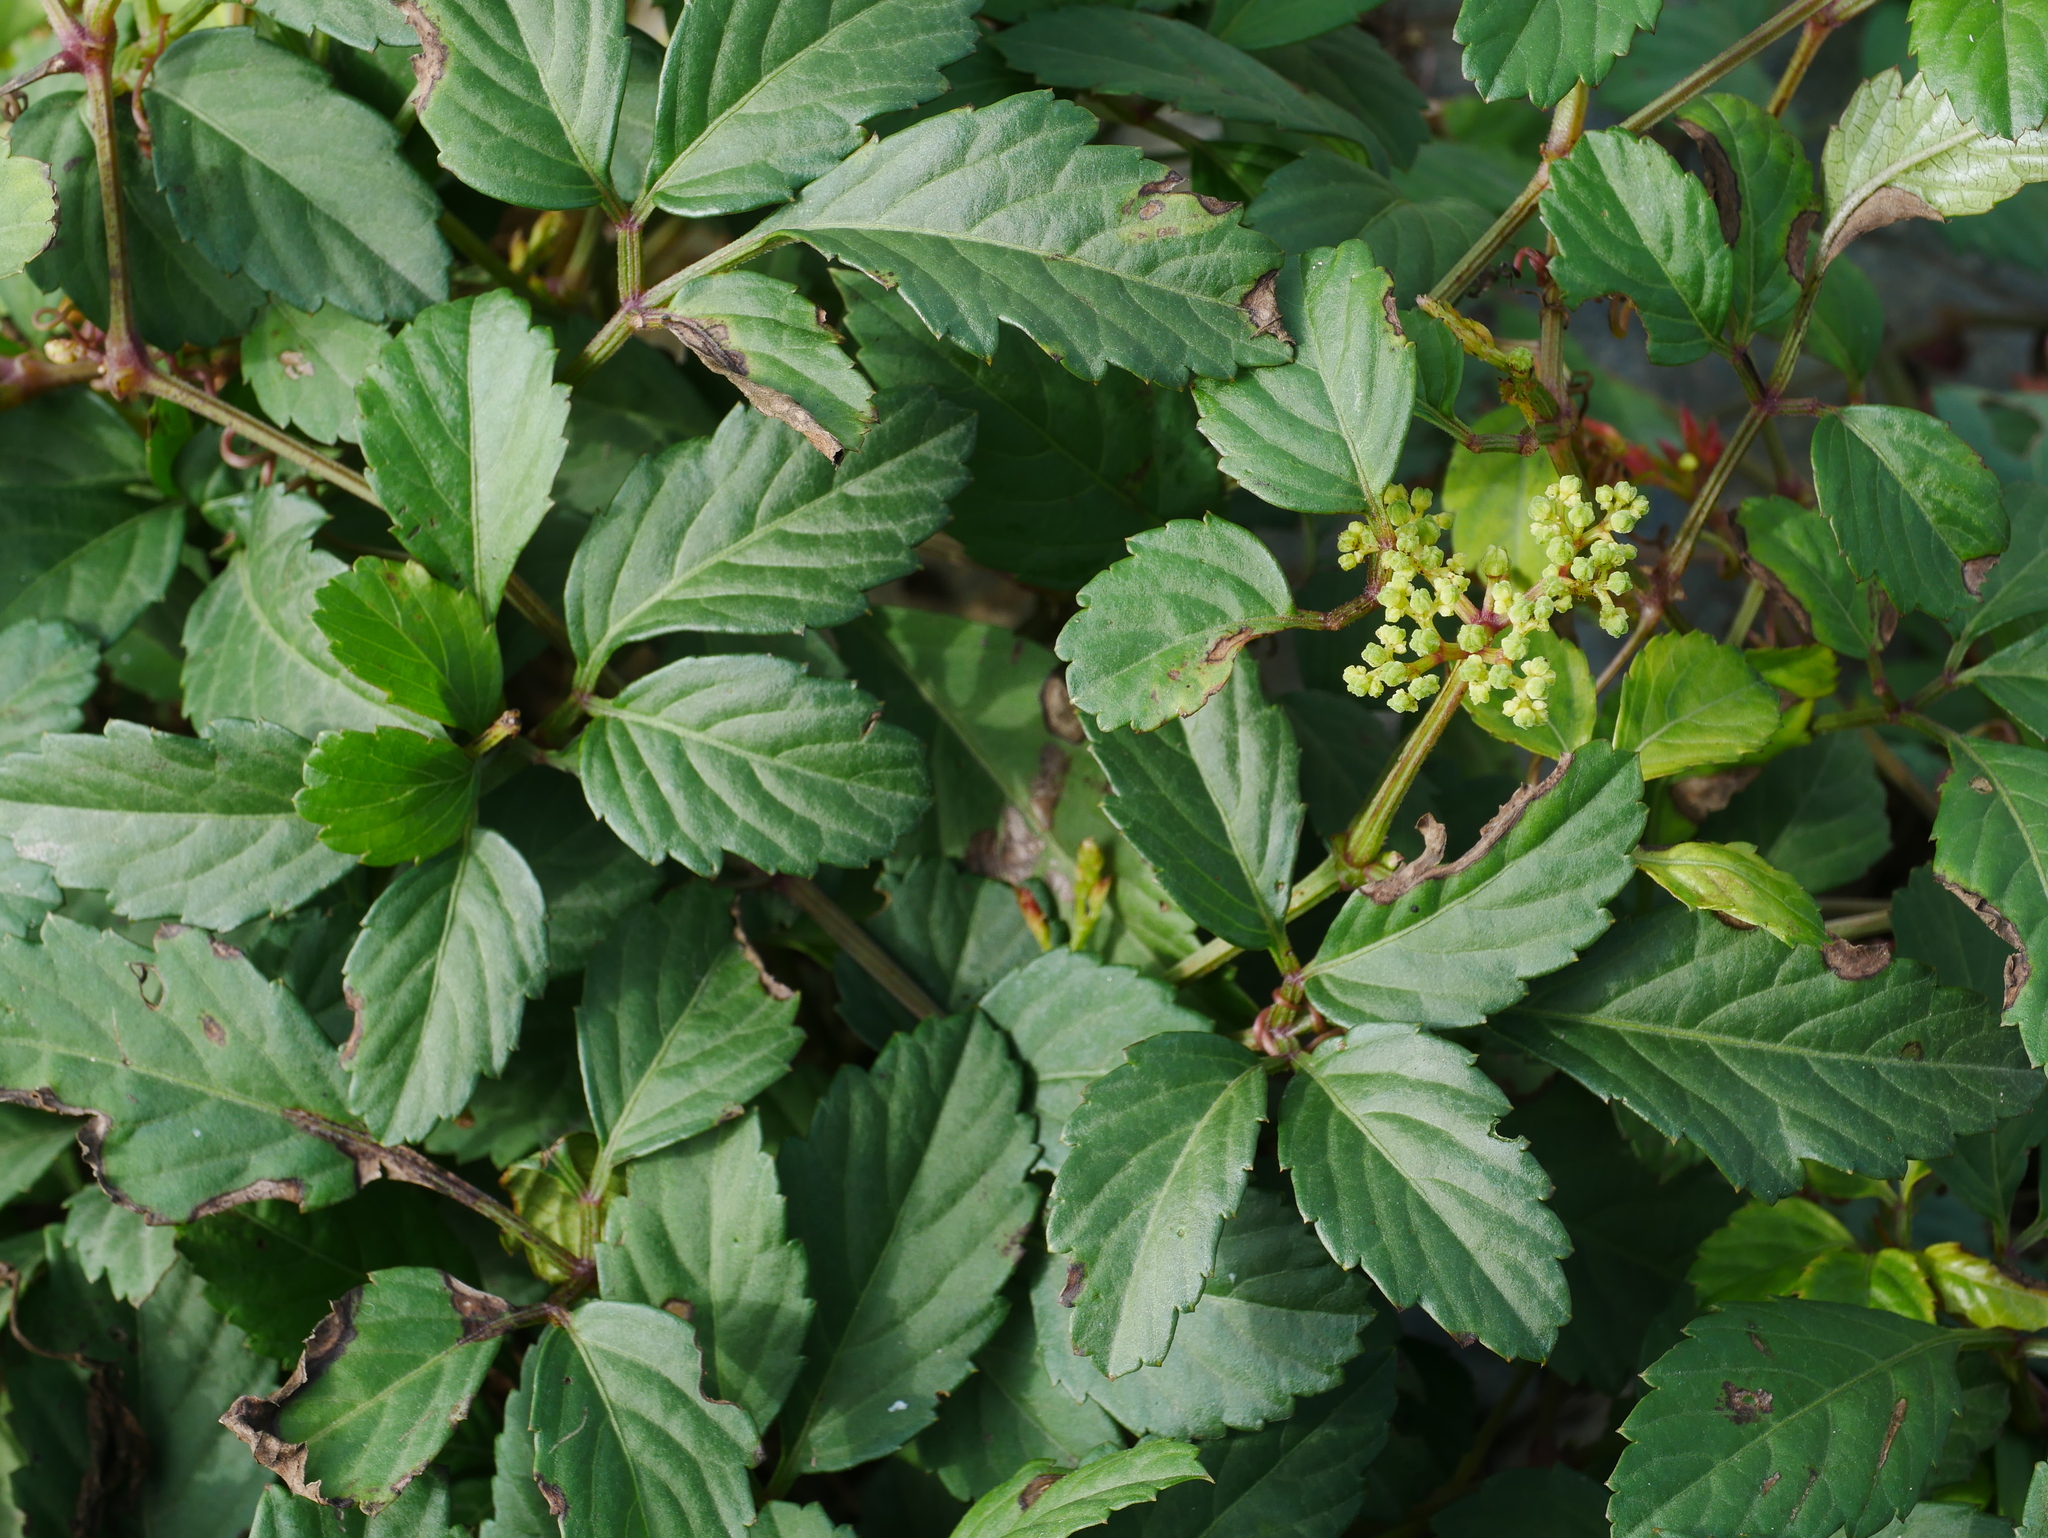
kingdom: Plantae
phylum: Tracheophyta
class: Magnoliopsida
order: Vitales
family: Vitaceae
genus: Causonis
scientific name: Causonis japonica
